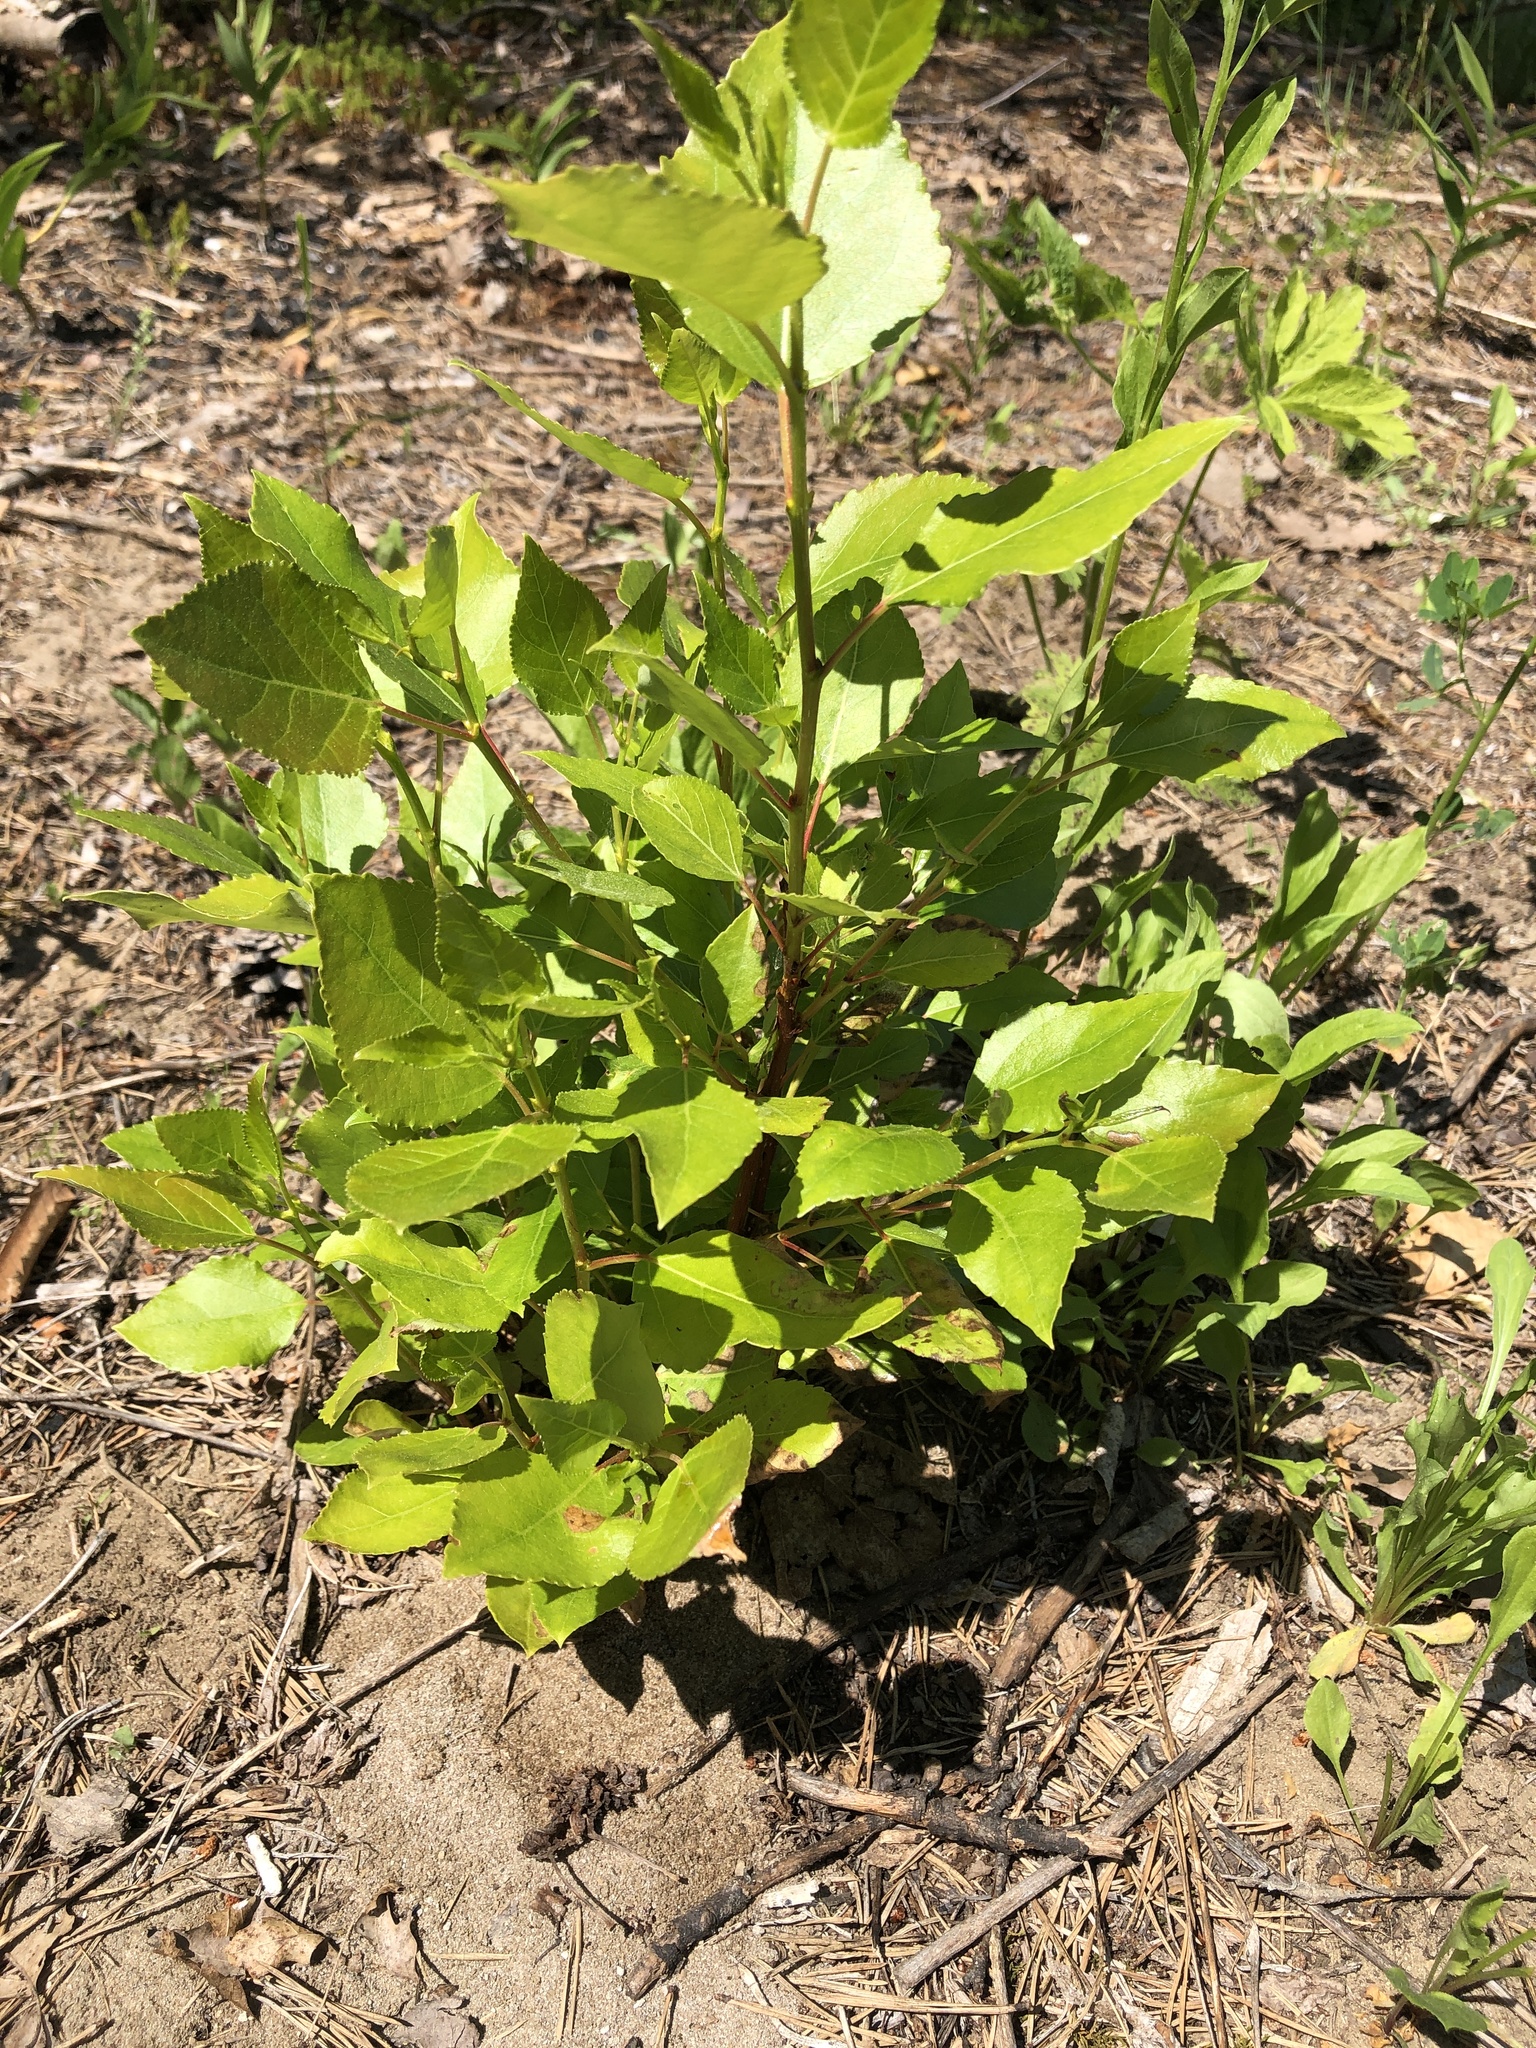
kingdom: Plantae
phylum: Tracheophyta
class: Magnoliopsida
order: Malpighiales
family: Salicaceae
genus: Populus
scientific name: Populus balsamifera
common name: Balsam poplar
